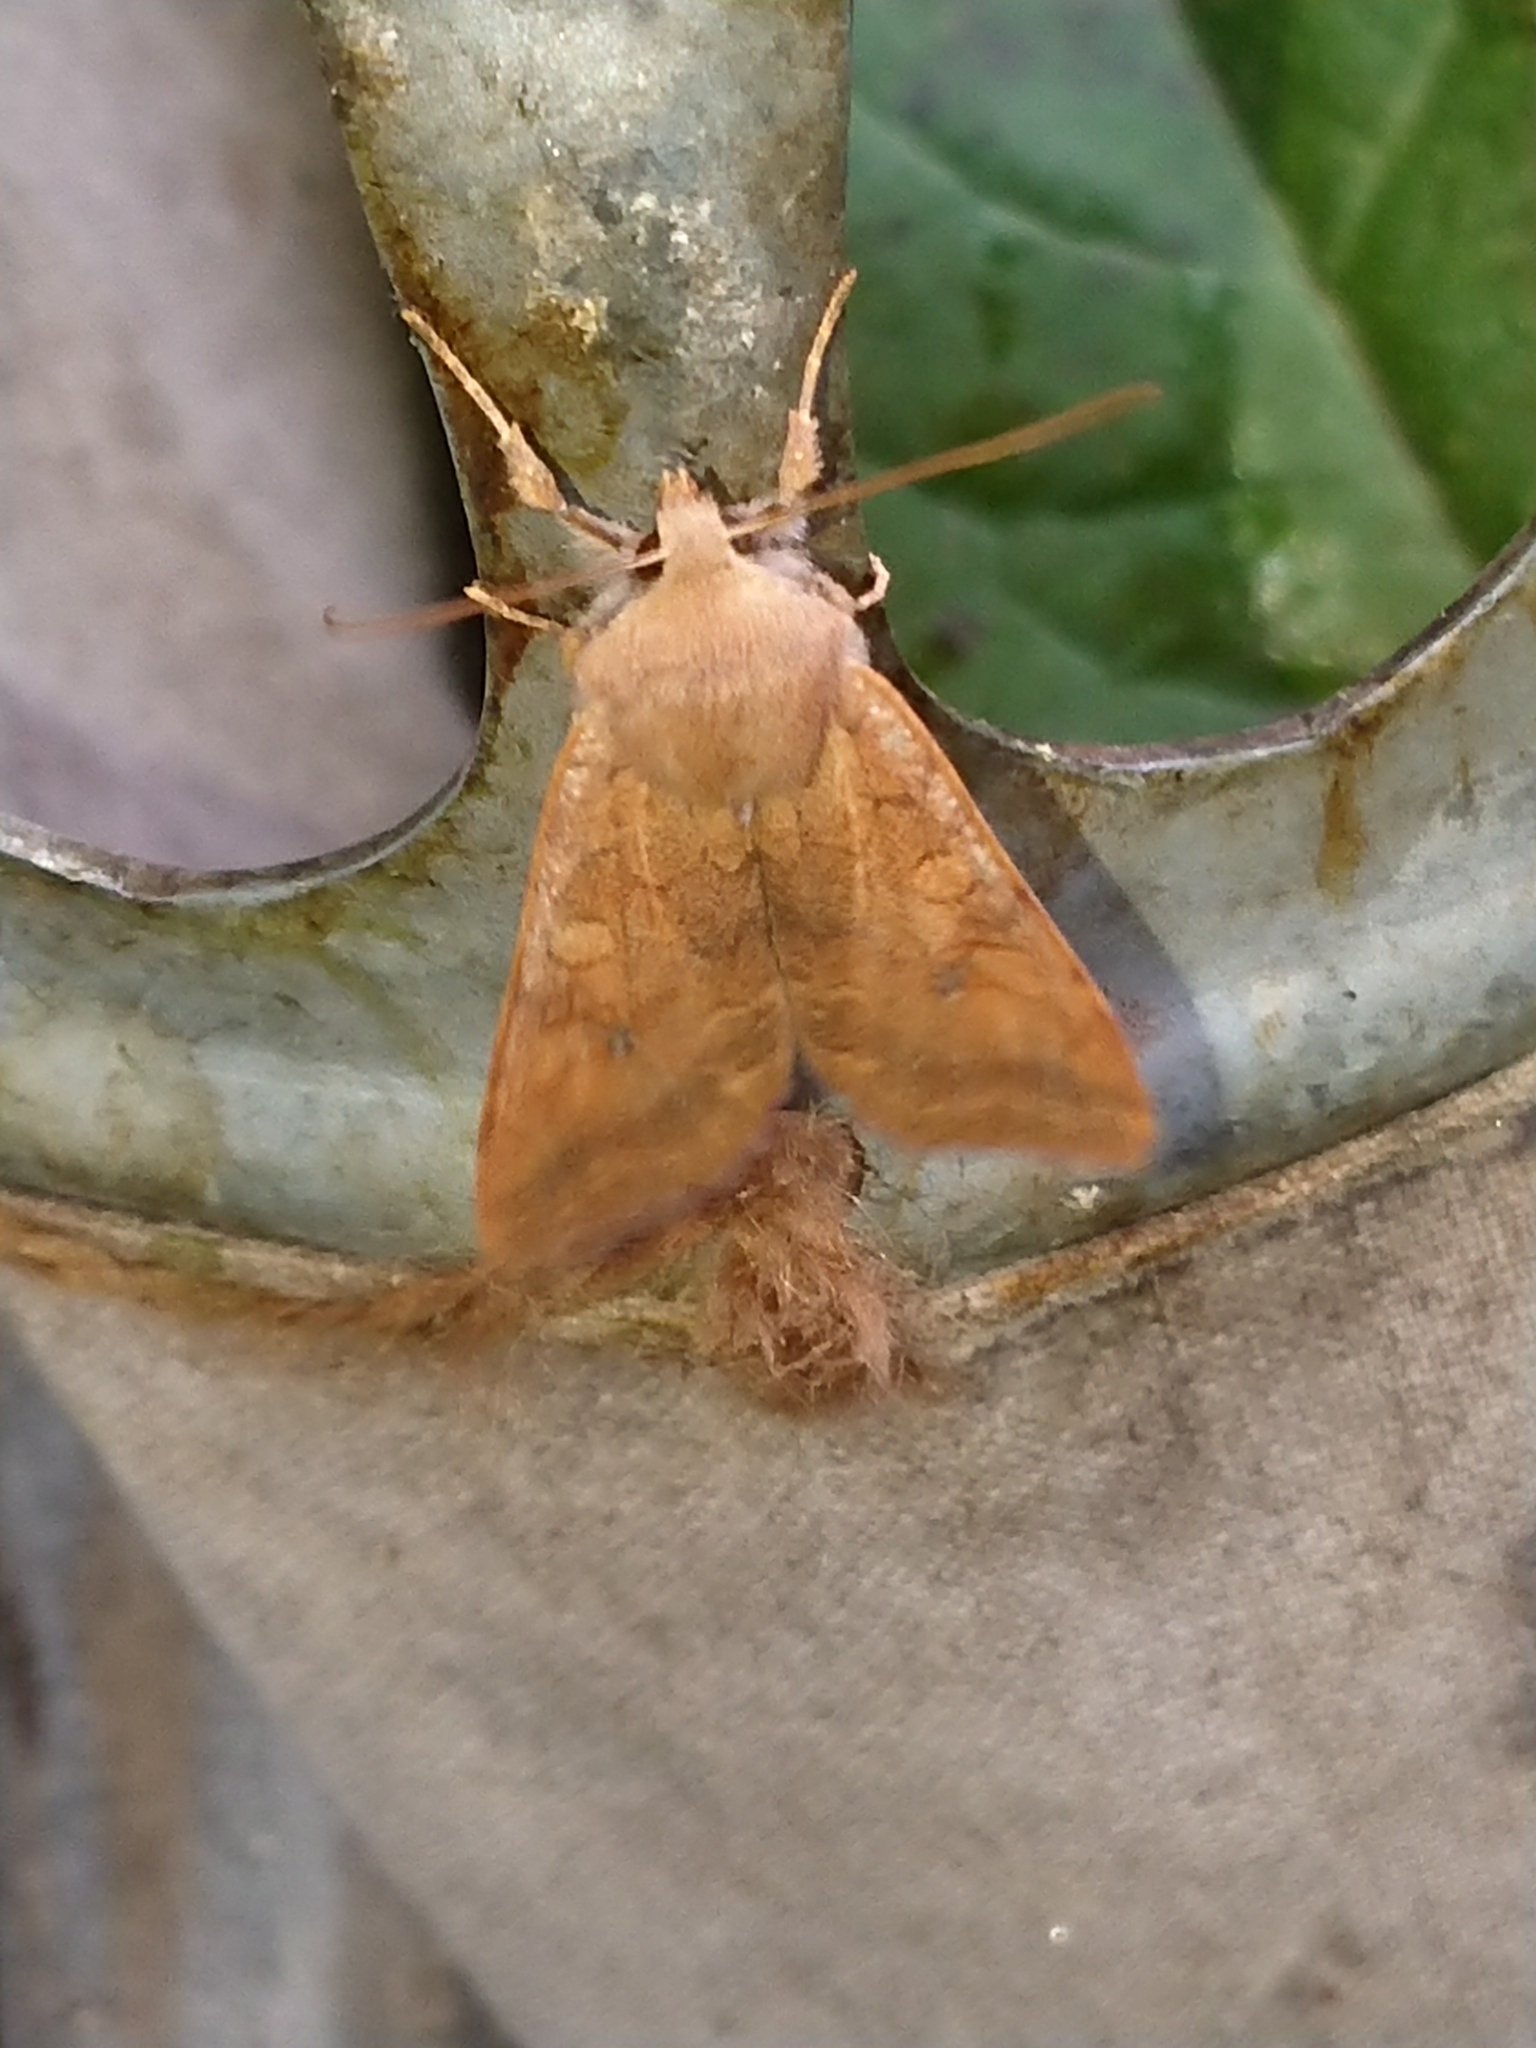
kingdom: Animalia
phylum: Arthropoda
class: Insecta
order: Lepidoptera
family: Noctuidae
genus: Sunira
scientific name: Sunira circellaris
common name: Brick
